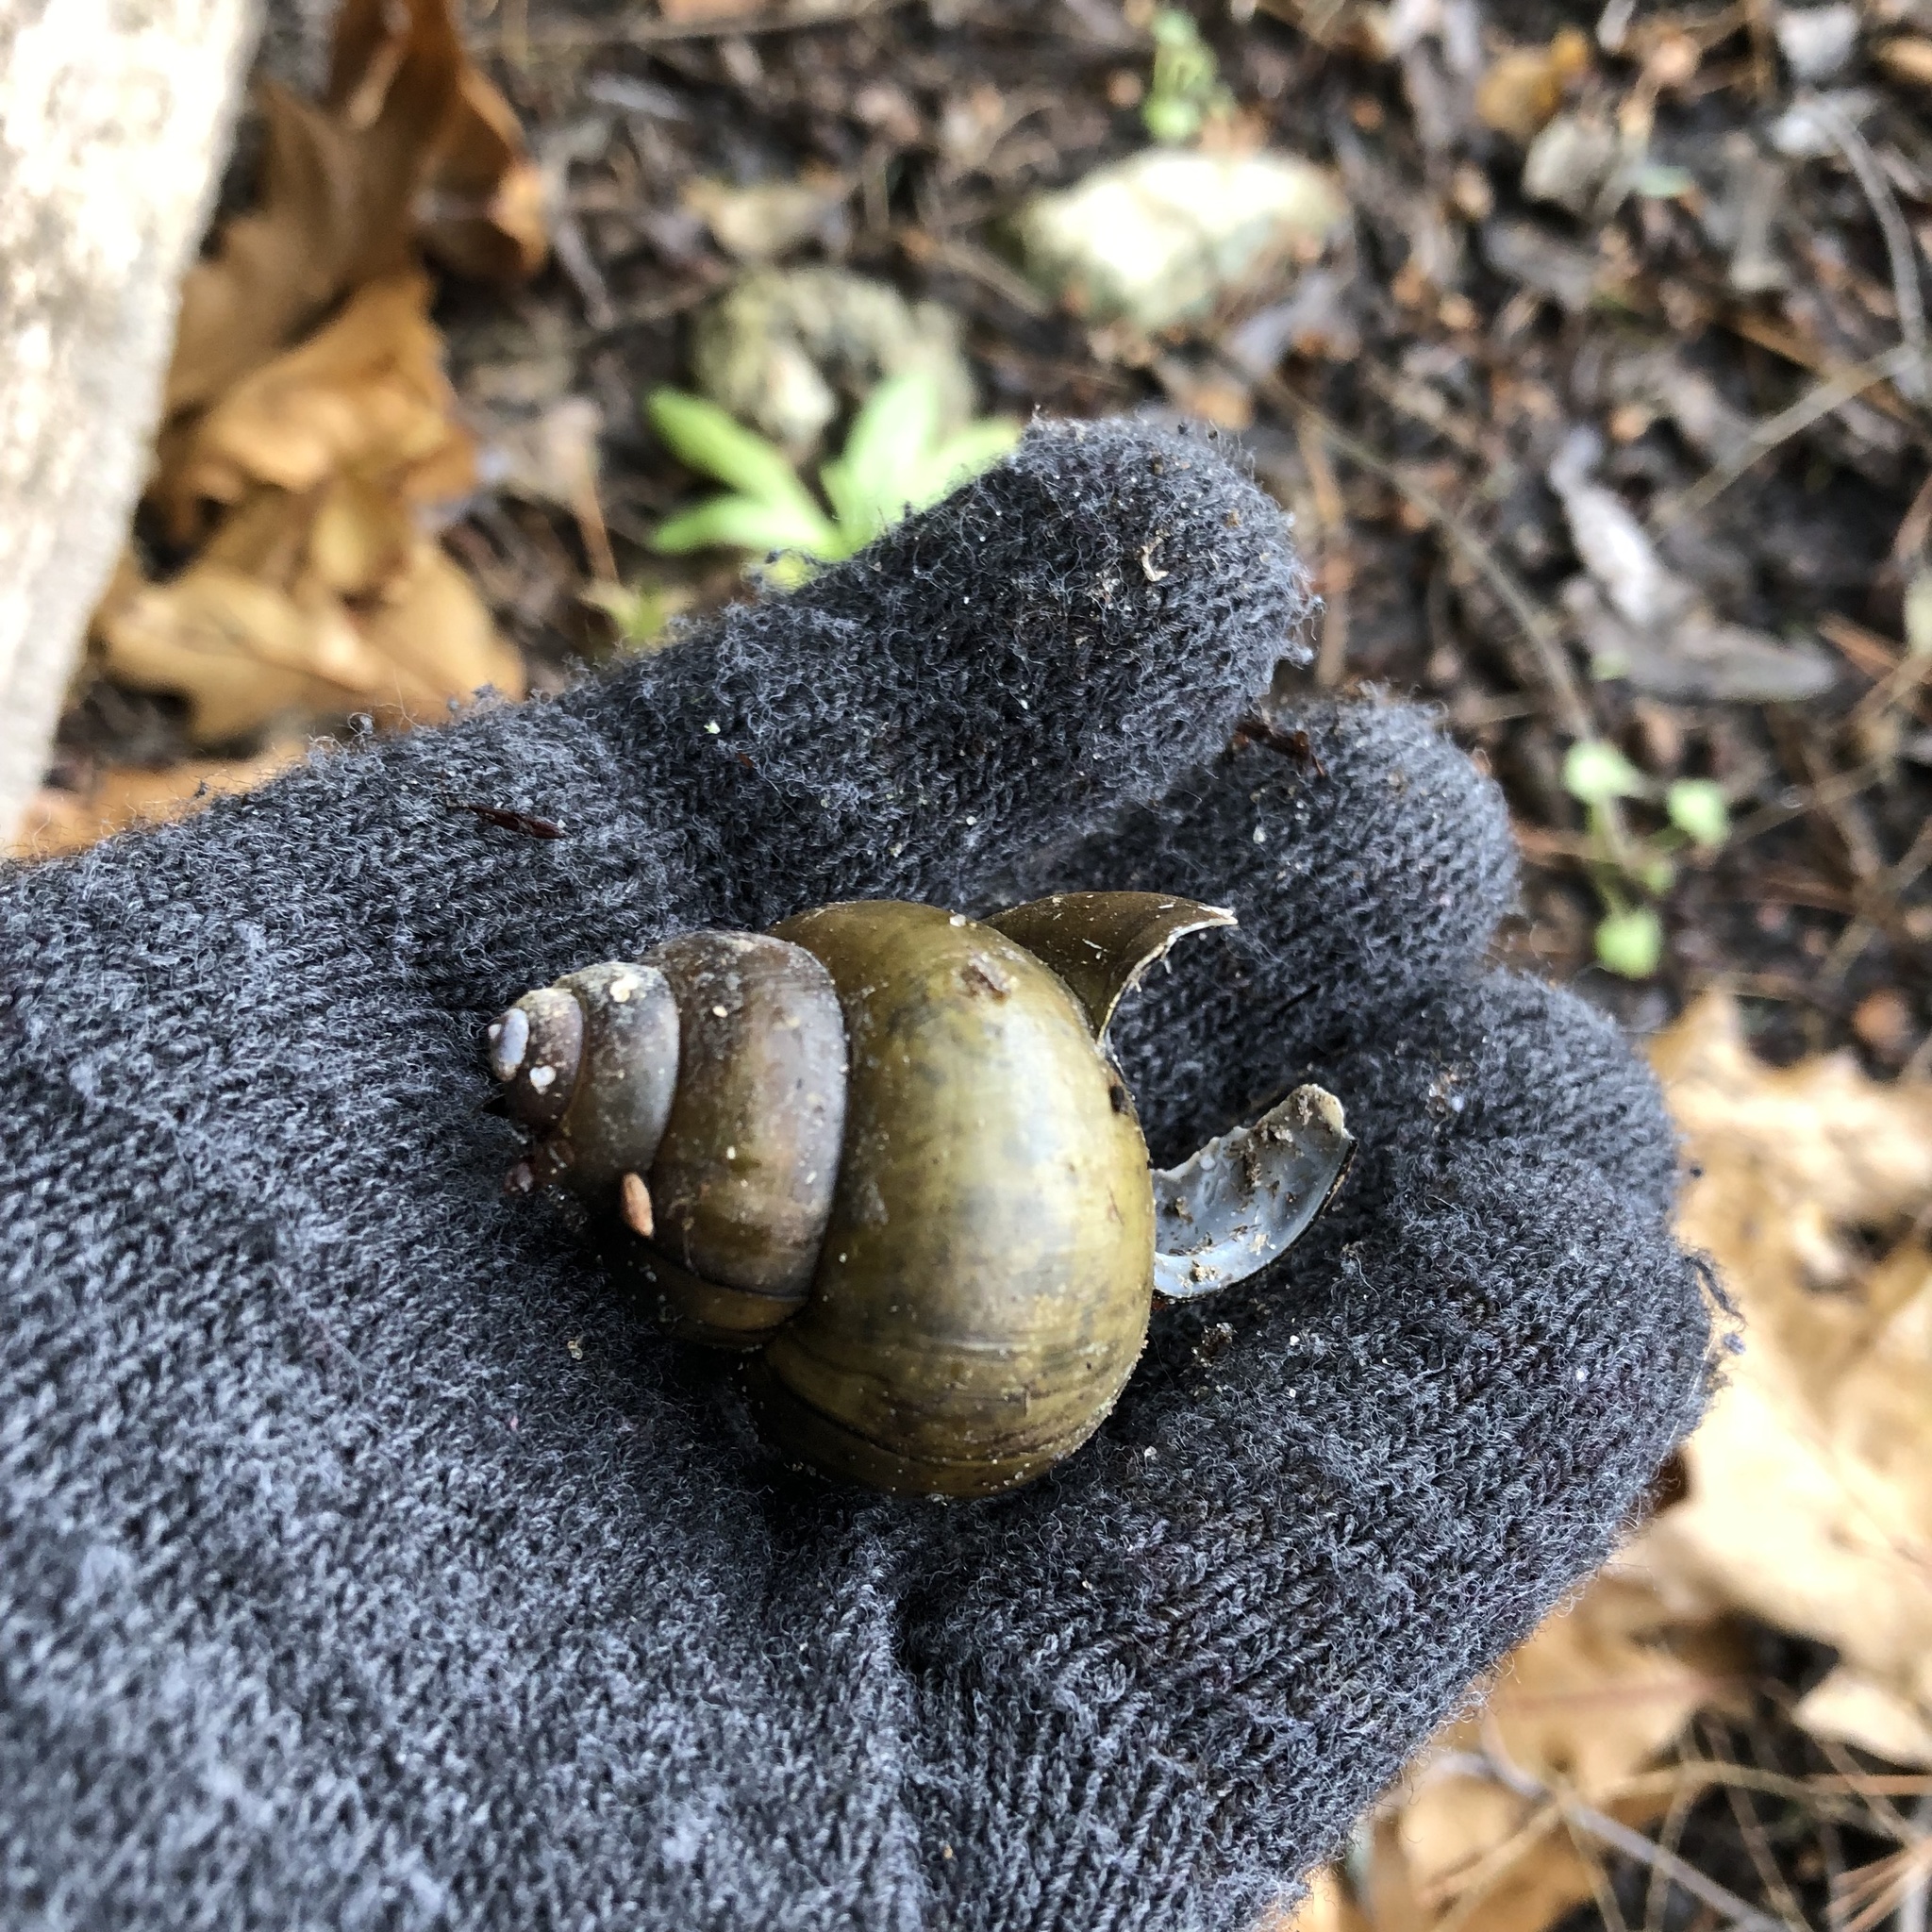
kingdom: Animalia
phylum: Mollusca
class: Gastropoda
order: Architaenioglossa
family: Viviparidae
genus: Cipangopaludina
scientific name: Cipangopaludina chinensis
